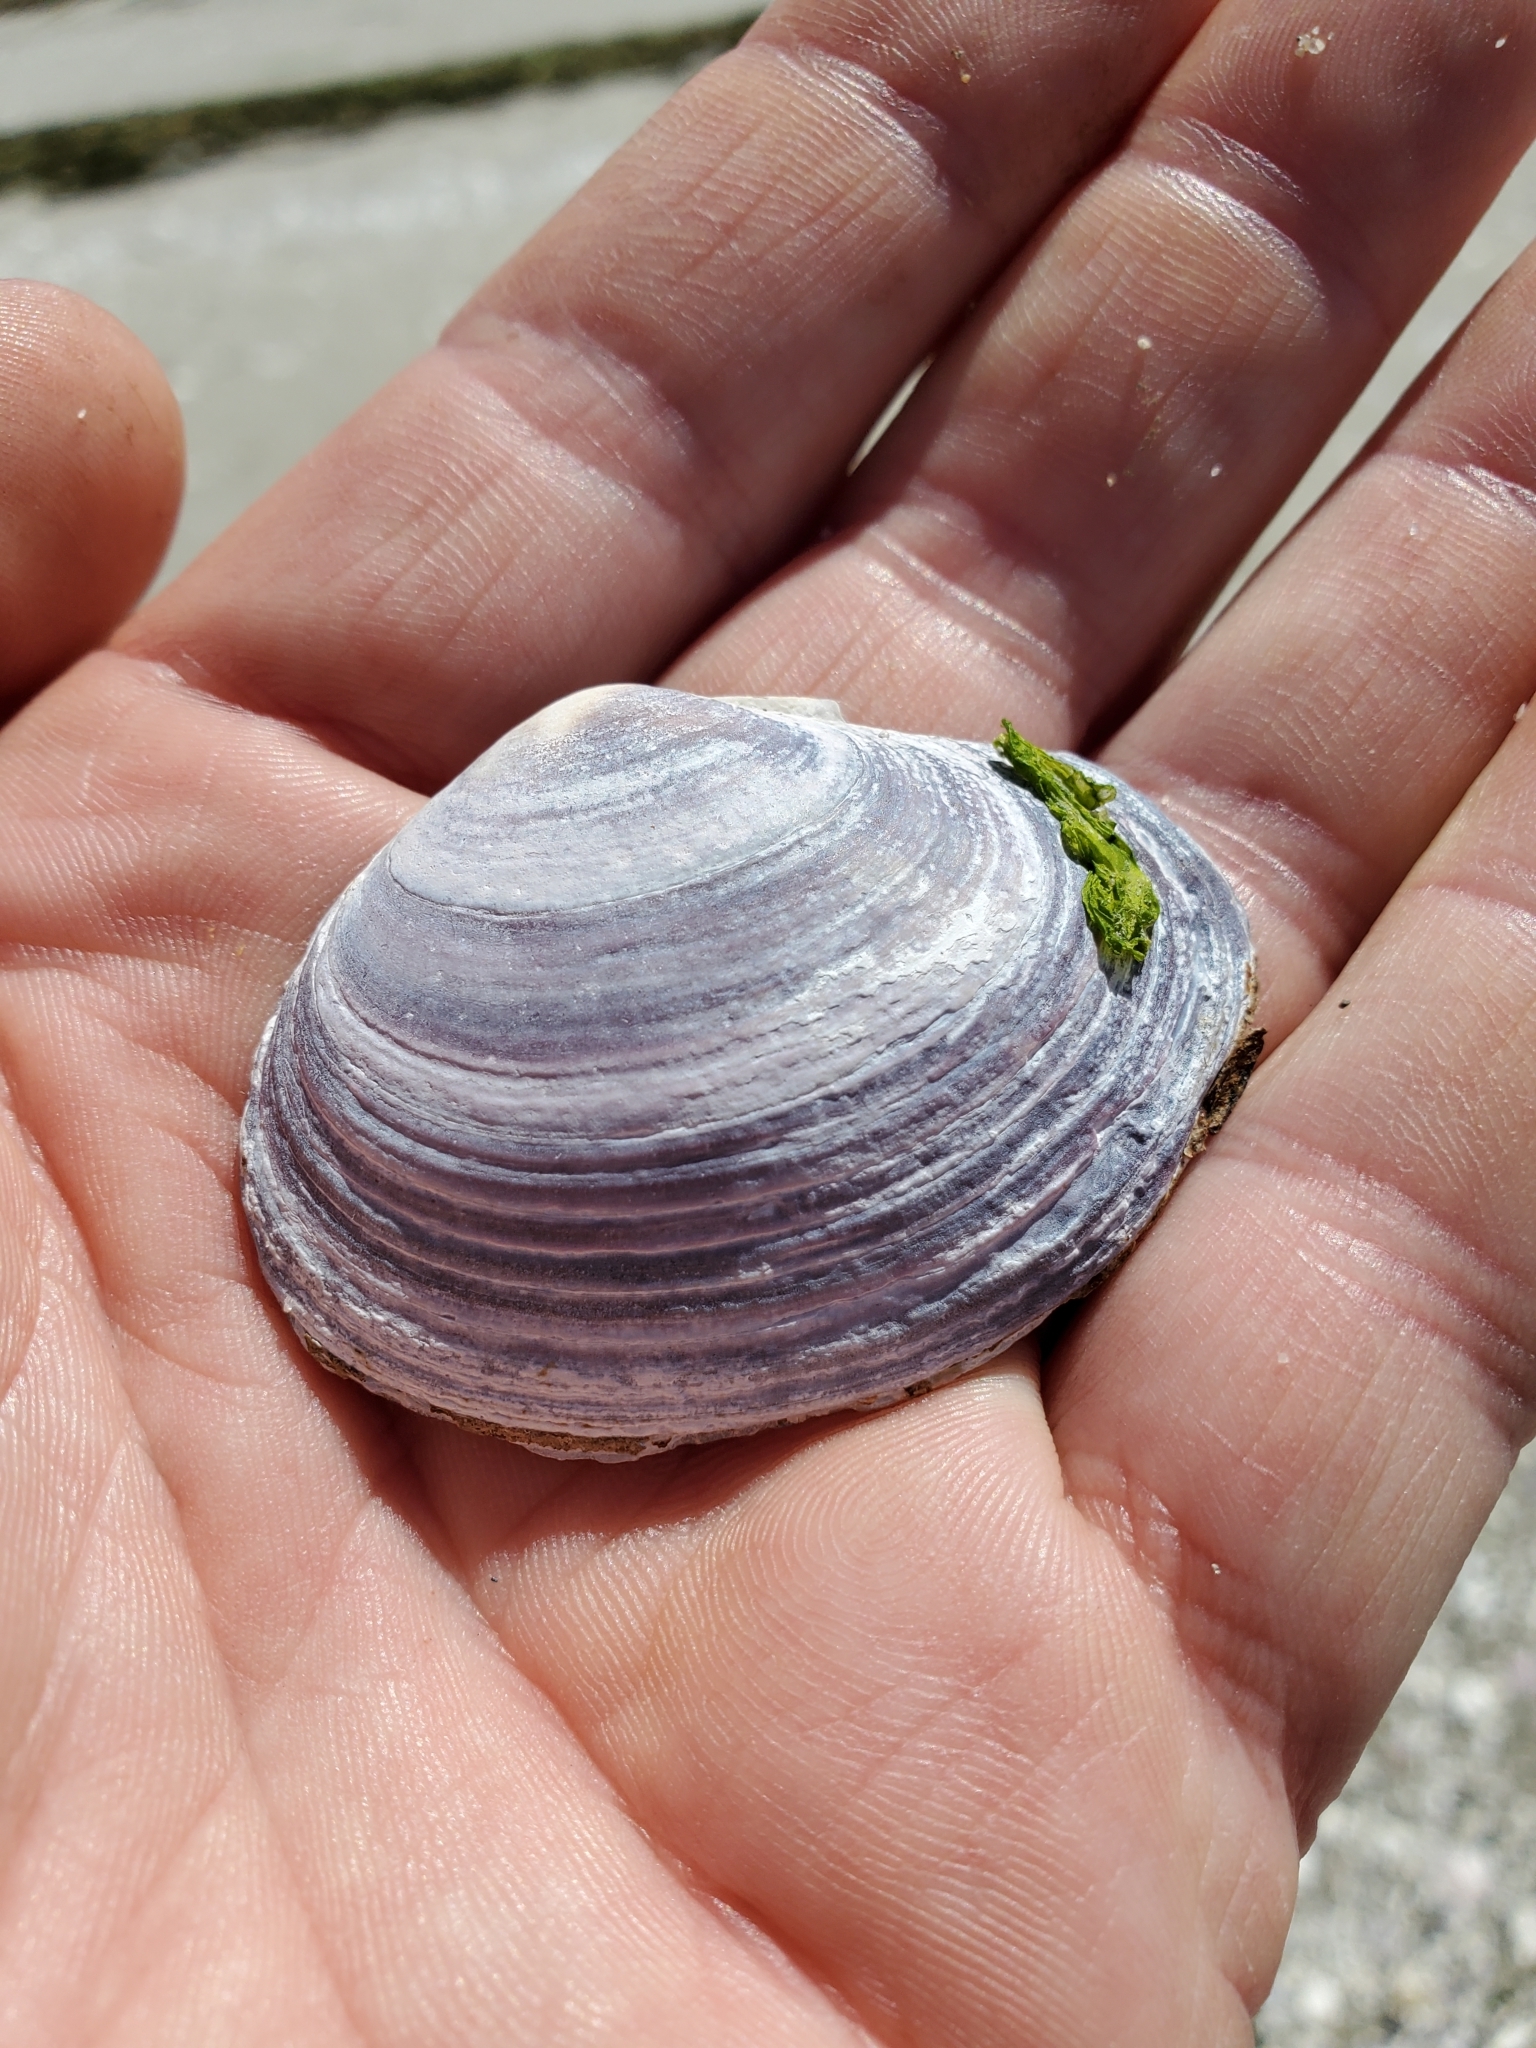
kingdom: Animalia
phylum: Mollusca
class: Bivalvia
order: Cardiida
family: Psammobiidae
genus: Nuttallia
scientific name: Nuttallia obscurata
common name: Purple mahogany-clam
